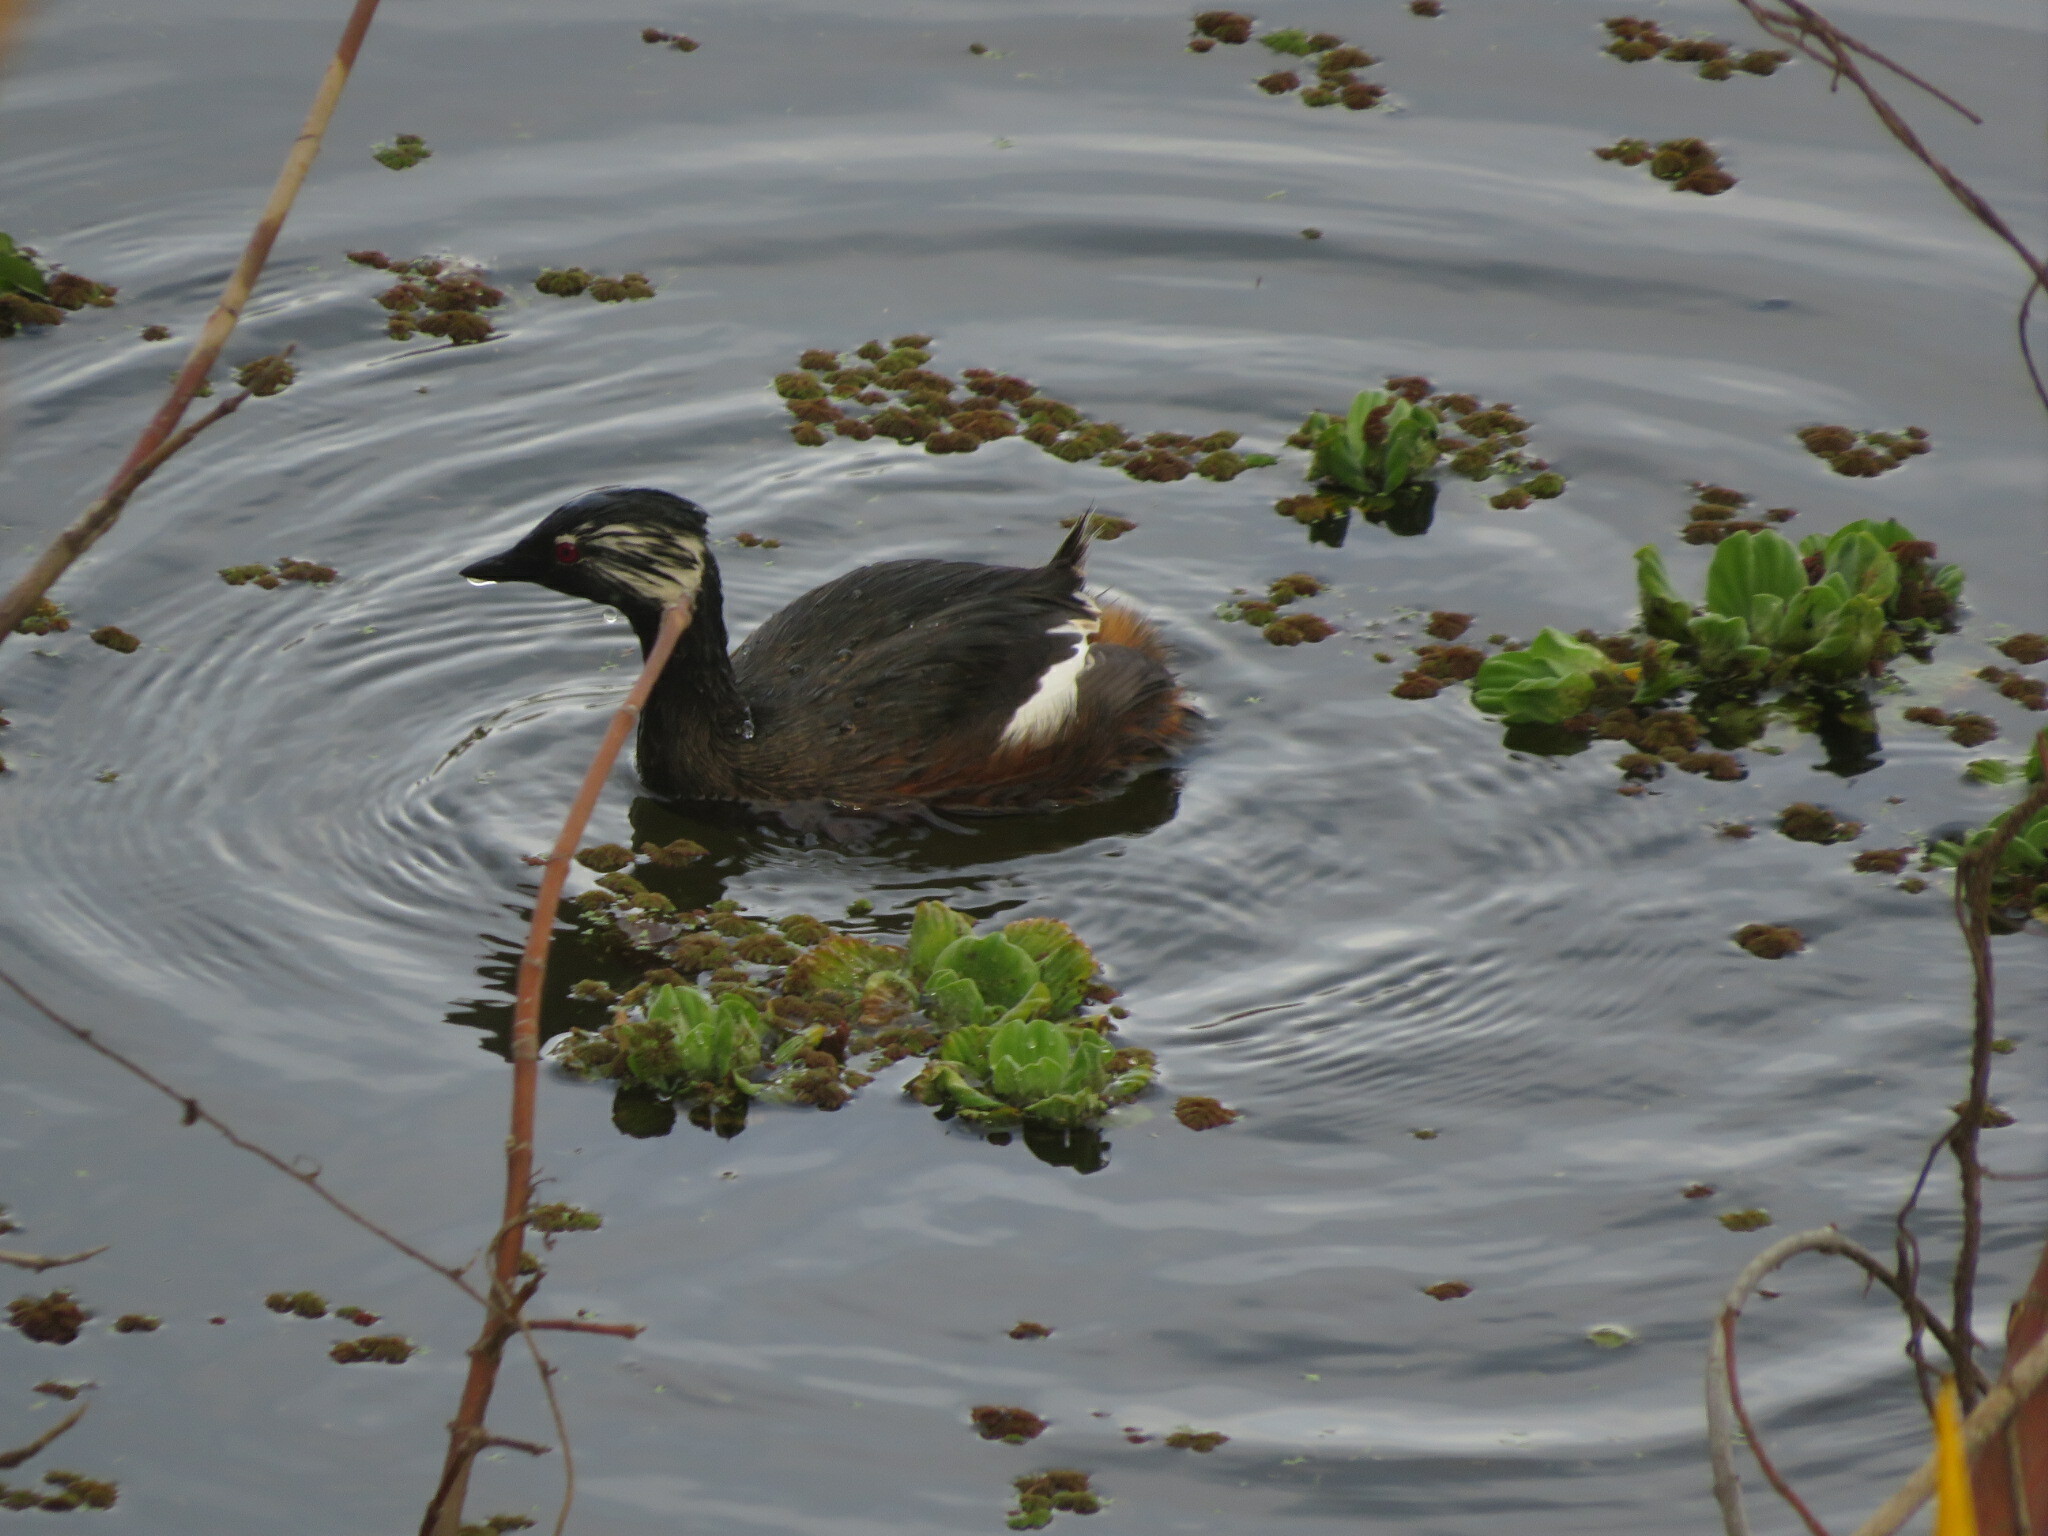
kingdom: Animalia
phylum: Chordata
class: Aves
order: Podicipediformes
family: Podicipedidae
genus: Rollandia
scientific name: Rollandia rolland
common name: White-tufted grebe
